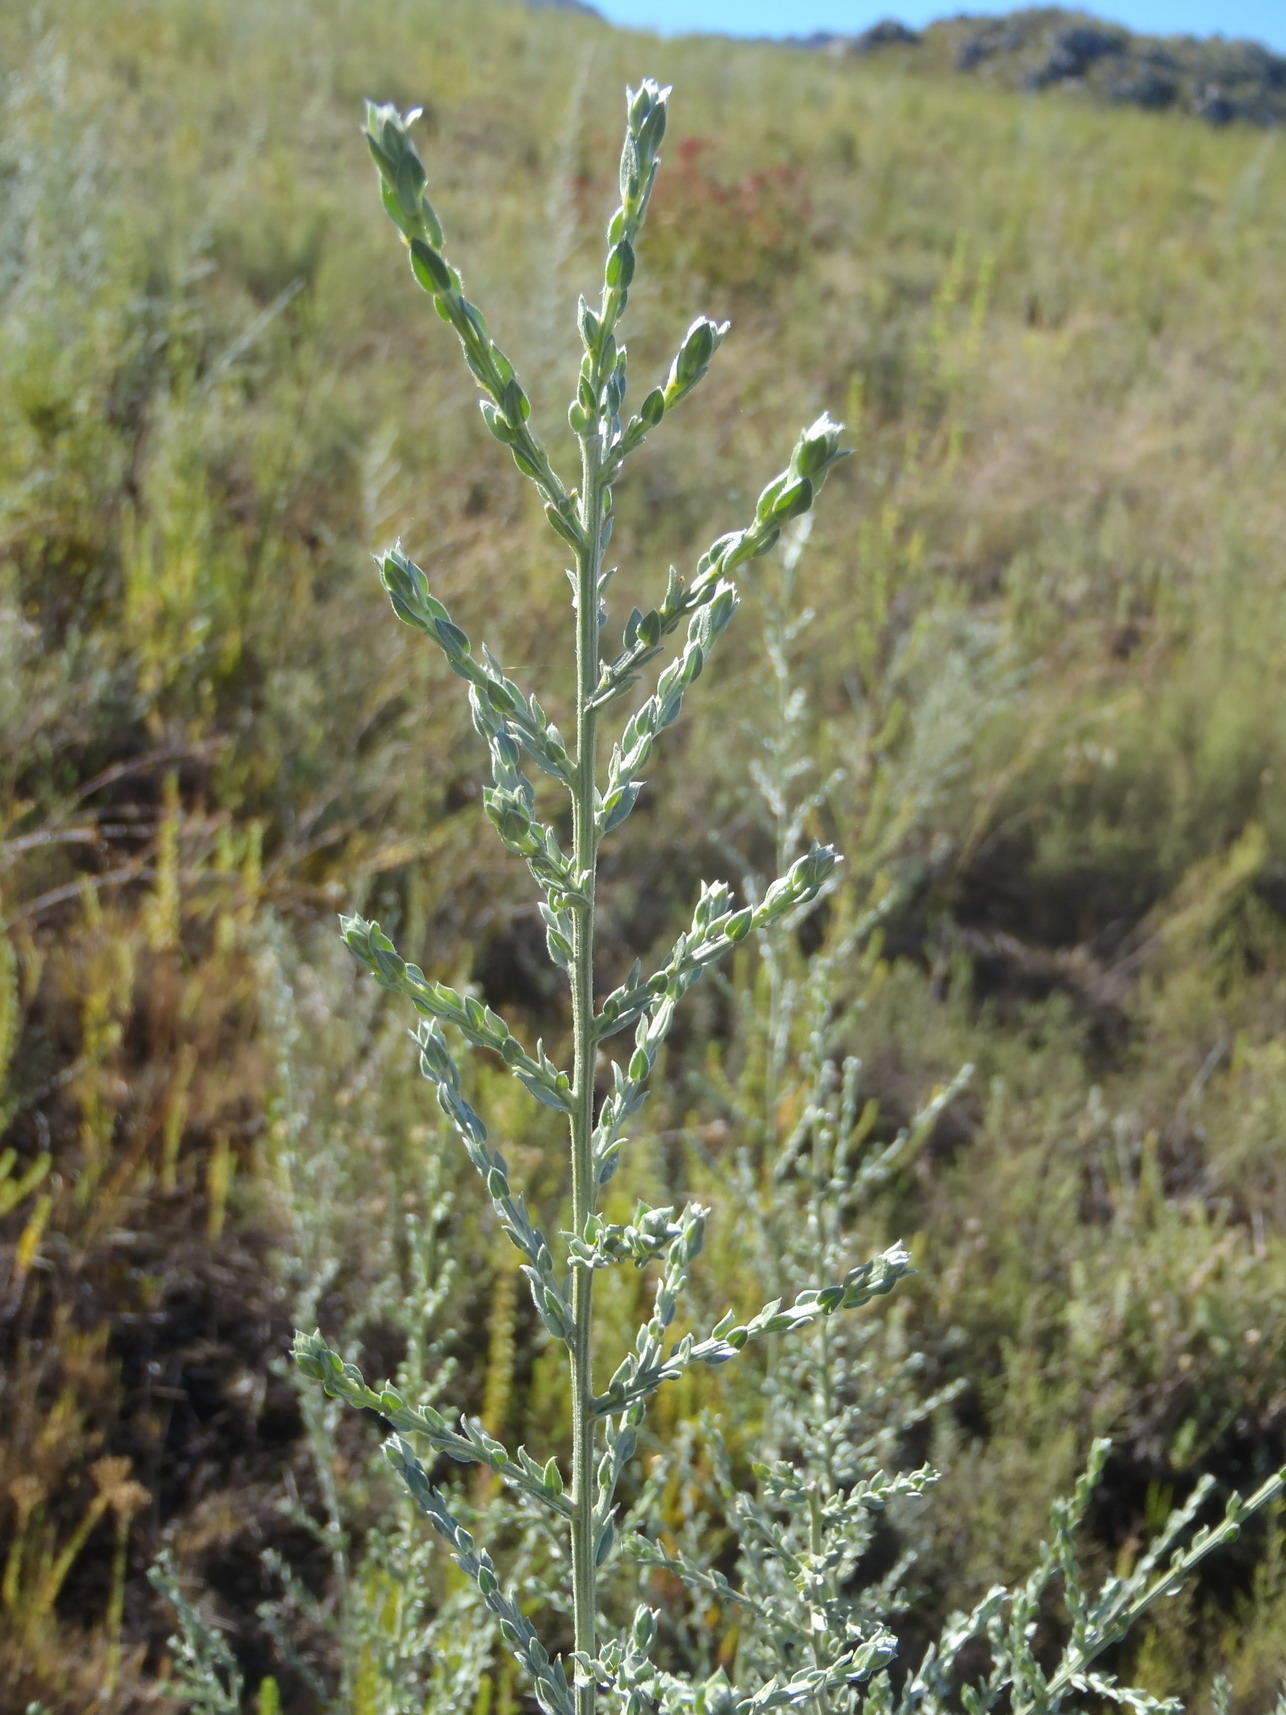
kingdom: Plantae
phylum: Tracheophyta
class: Magnoliopsida
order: Fabales
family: Fabaceae
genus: Amphithalea
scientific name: Amphithalea
